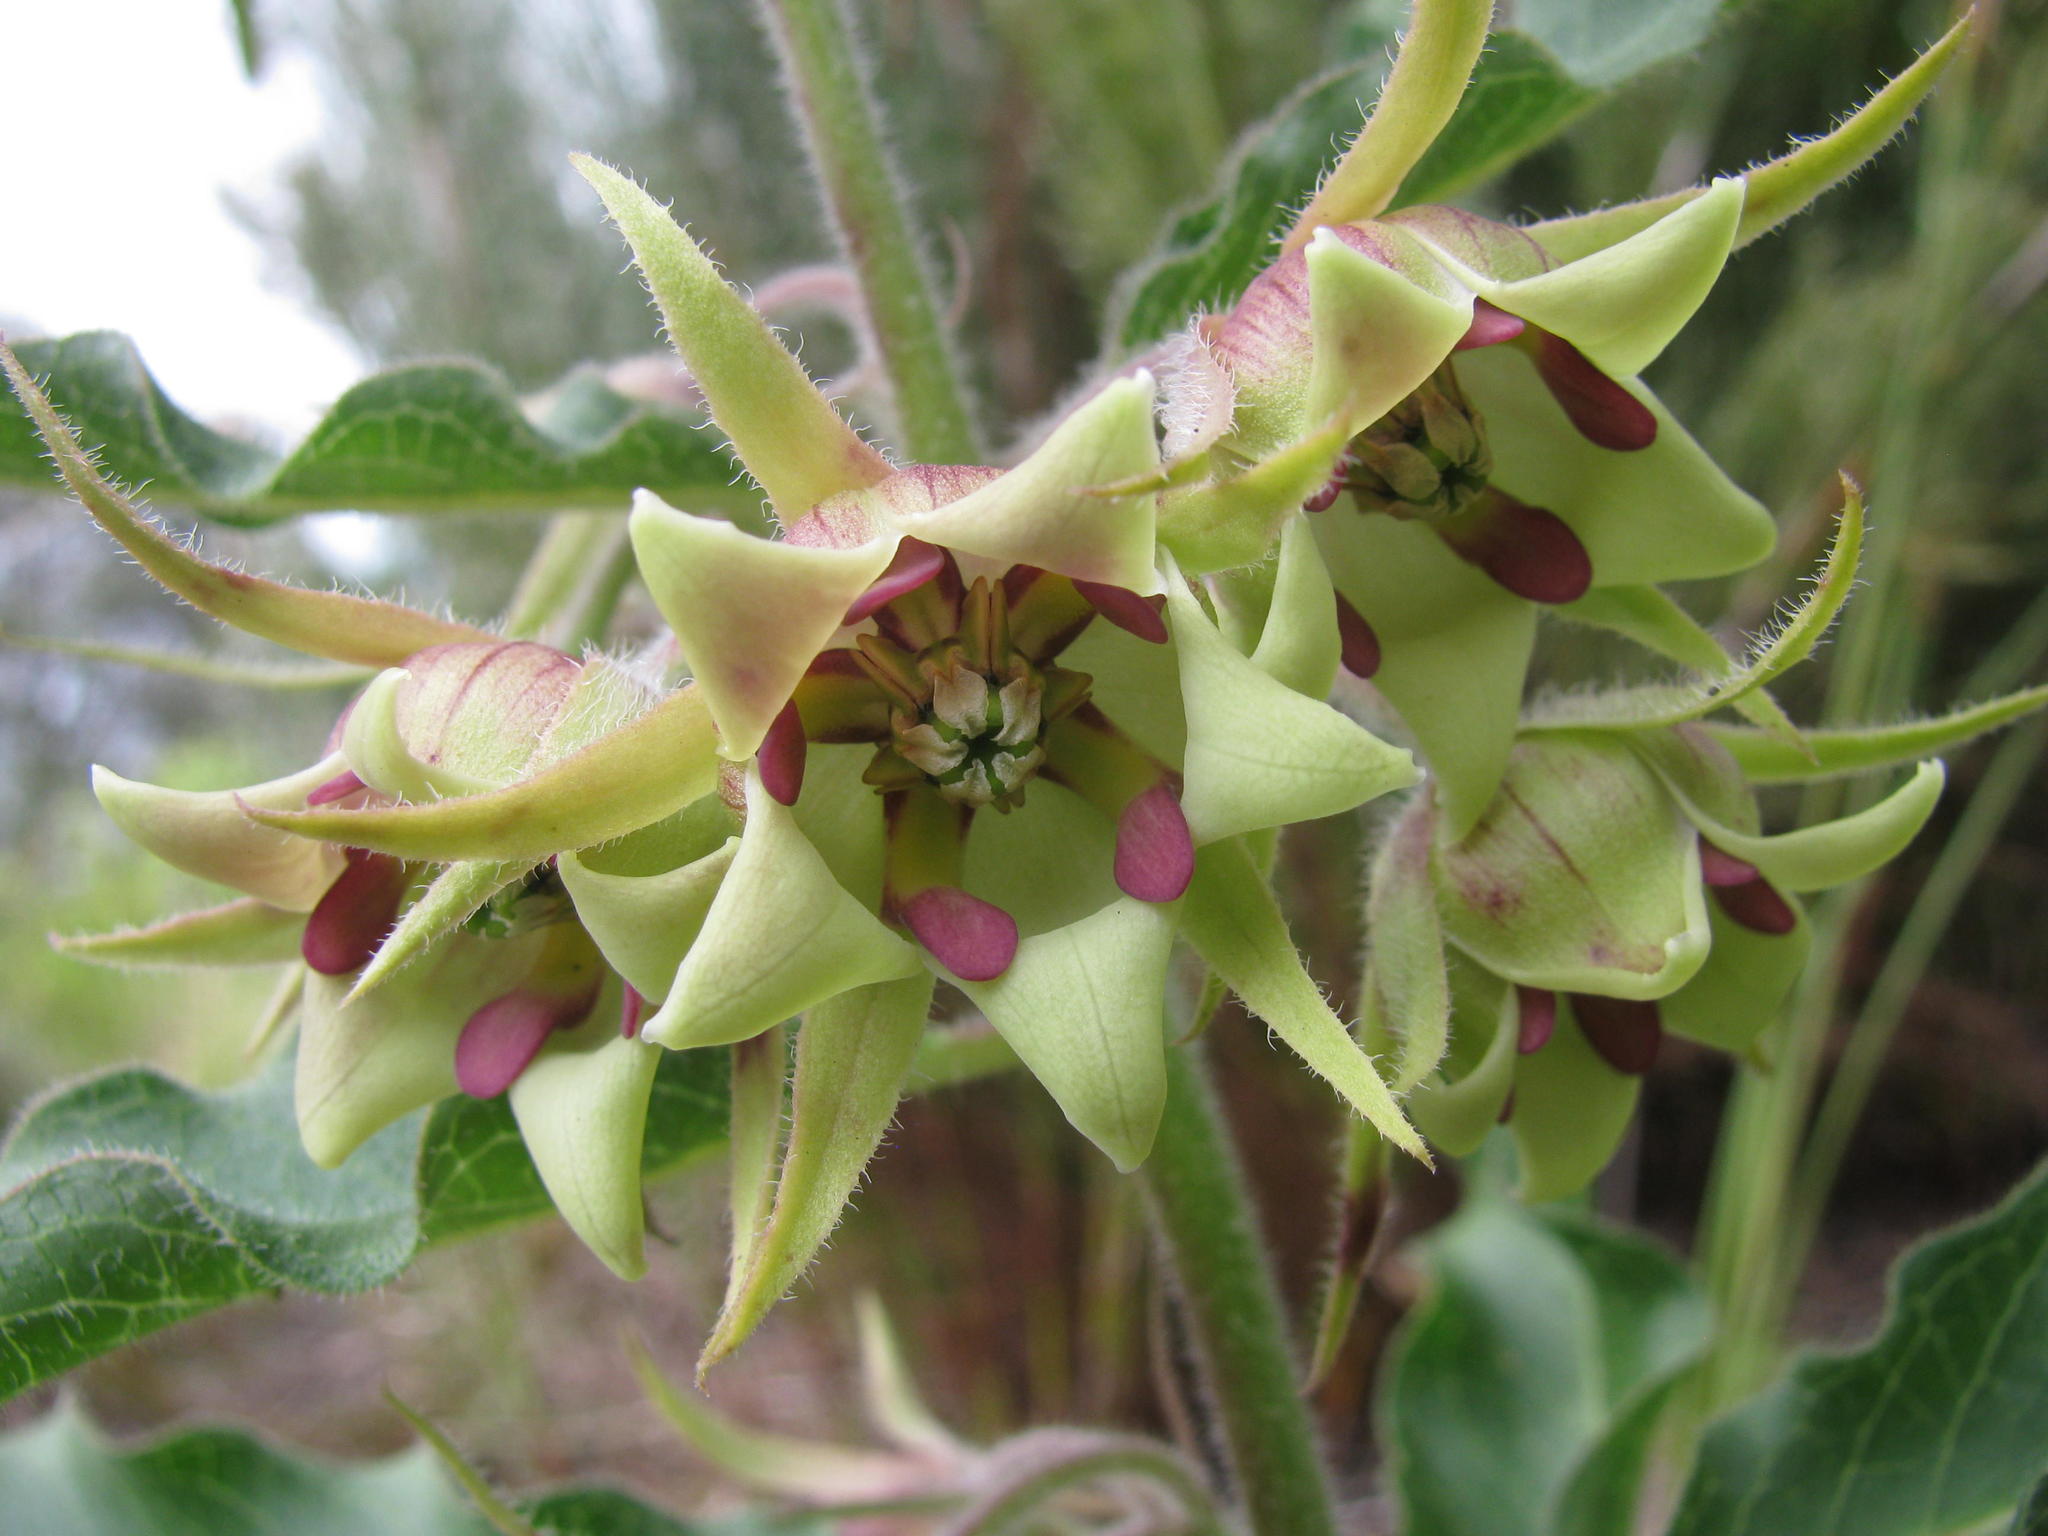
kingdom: Plantae
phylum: Tracheophyta
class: Magnoliopsida
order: Gentianales
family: Apocynaceae
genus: Pachycarpus
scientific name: Pachycarpus dealbatus
